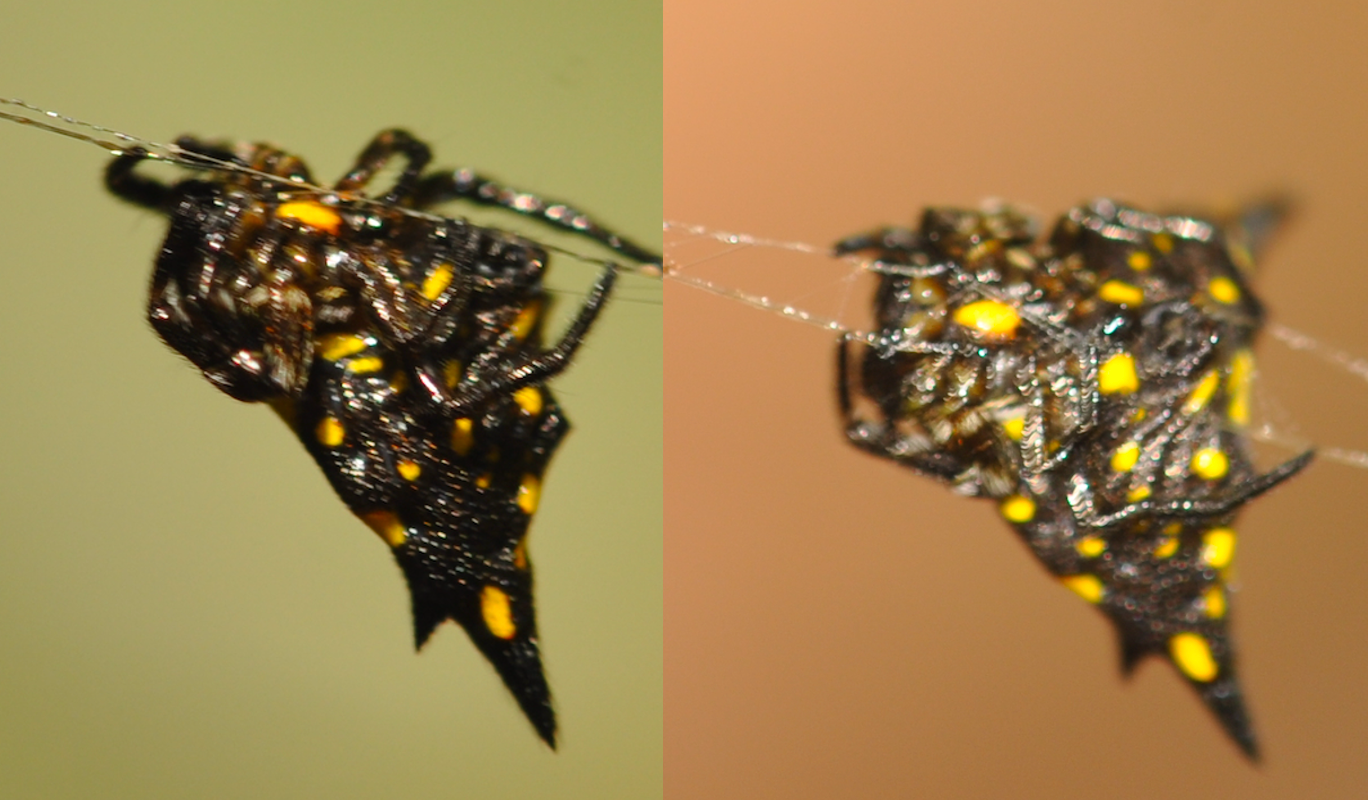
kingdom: Animalia
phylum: Arthropoda
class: Arachnida
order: Araneae
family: Araneidae
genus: Acrosomoides
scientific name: Acrosomoides acrosomoides
